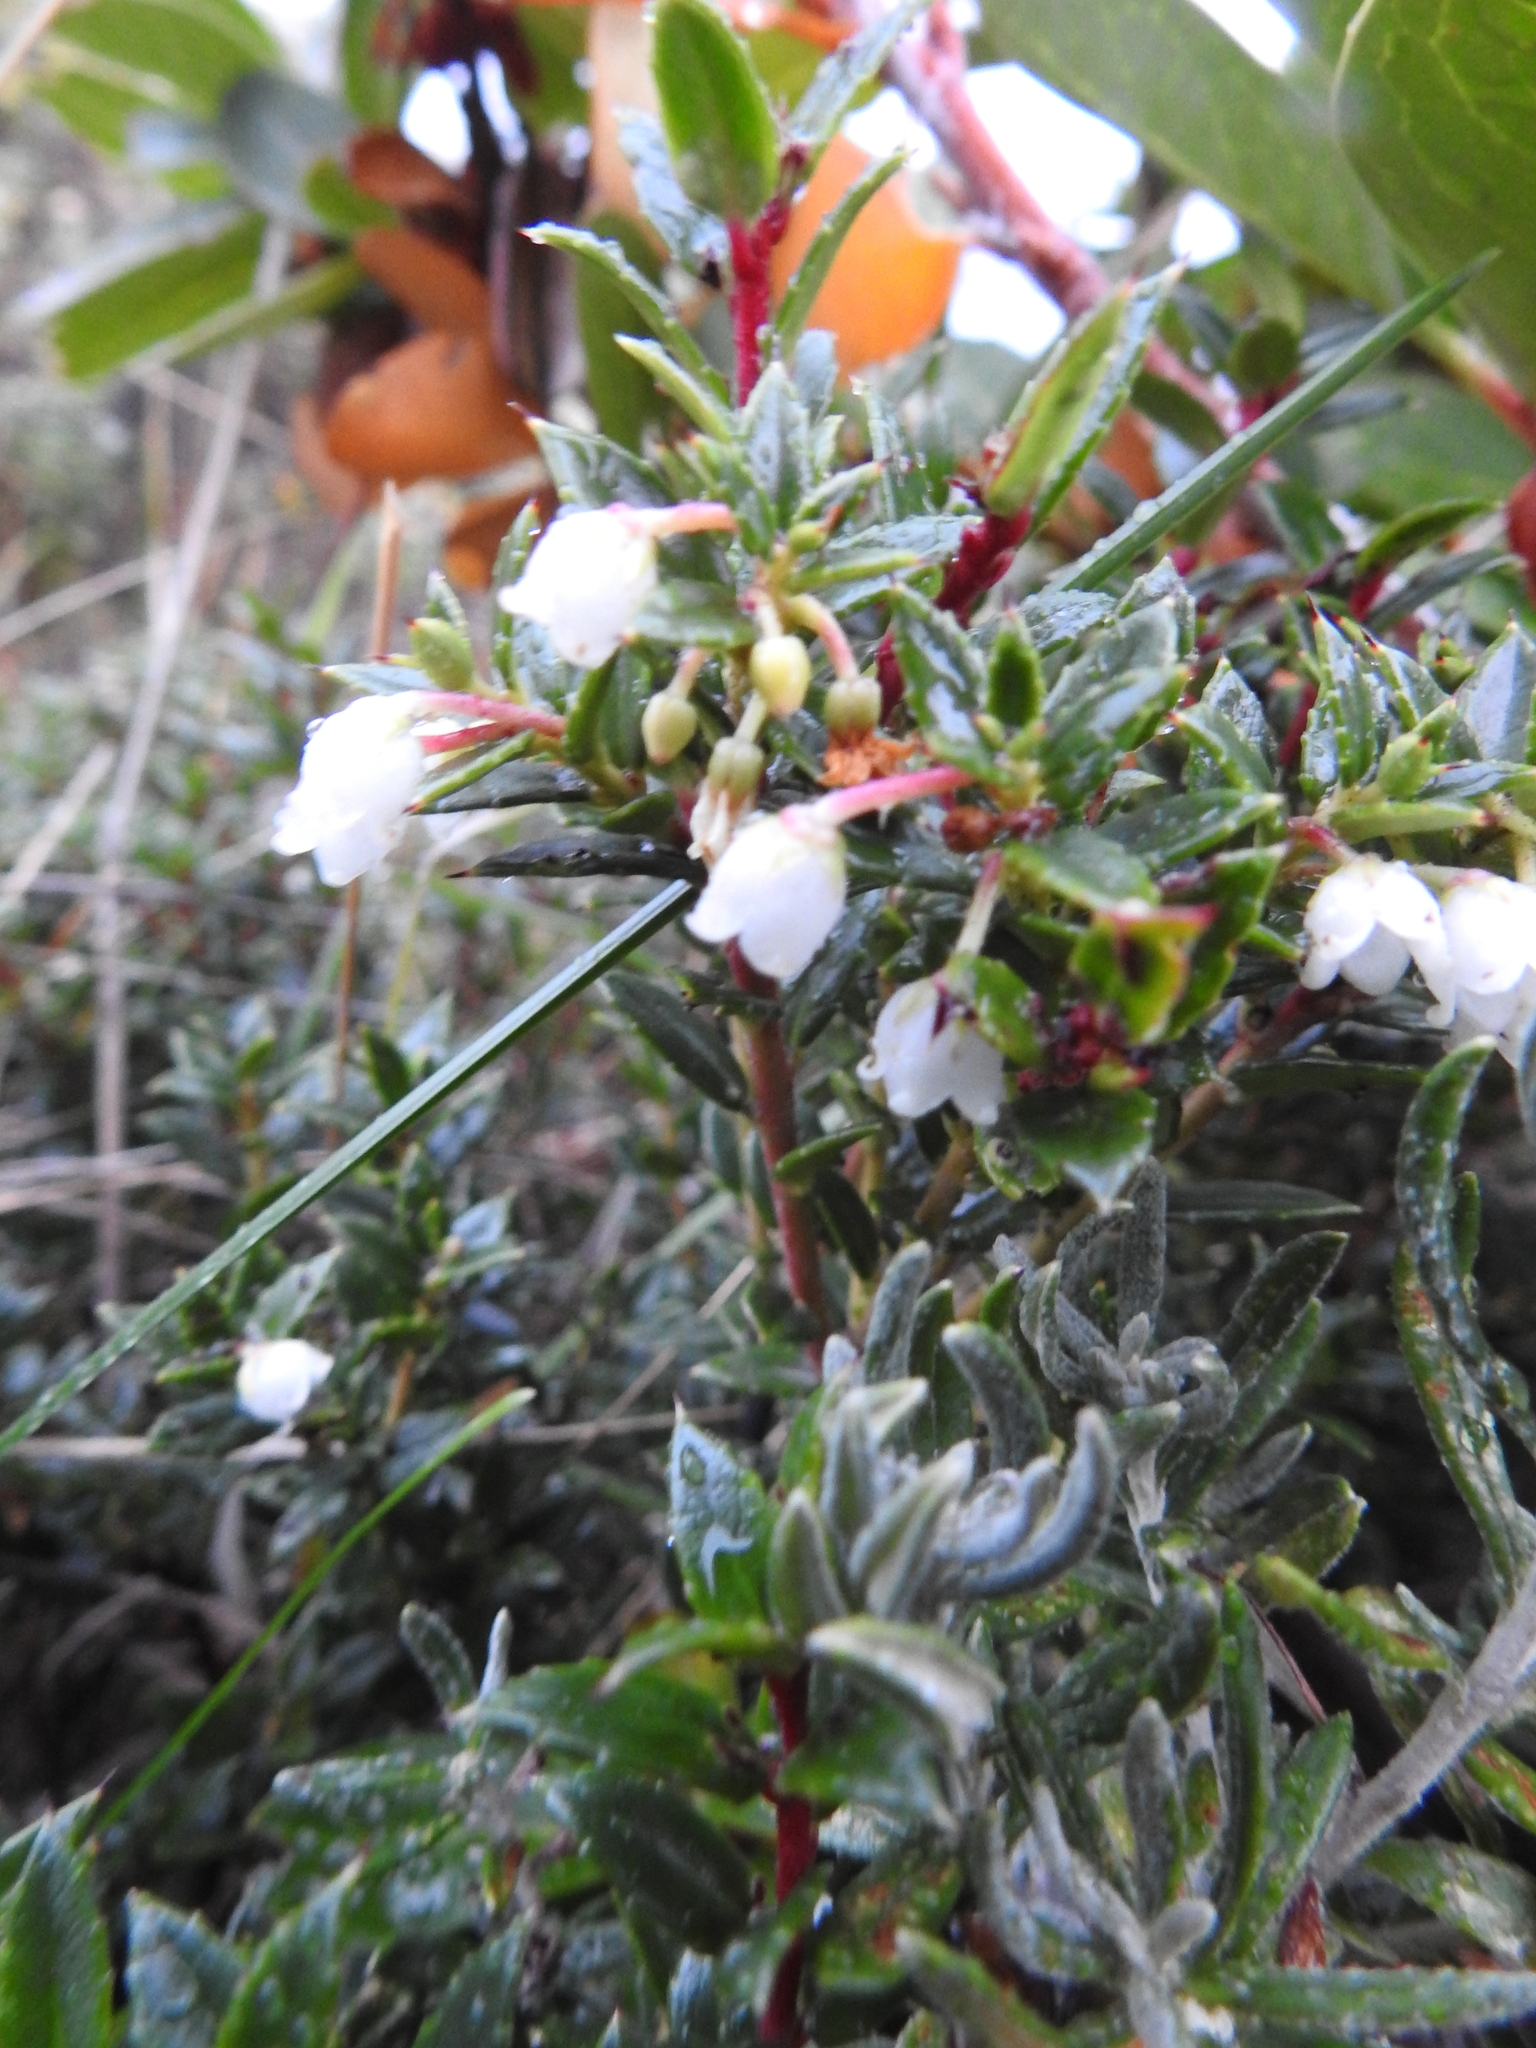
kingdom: Plantae
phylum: Tracheophyta
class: Magnoliopsida
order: Ericales
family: Ericaceae
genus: Gaultheria
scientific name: Gaultheria mucronata
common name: Prickly heath
